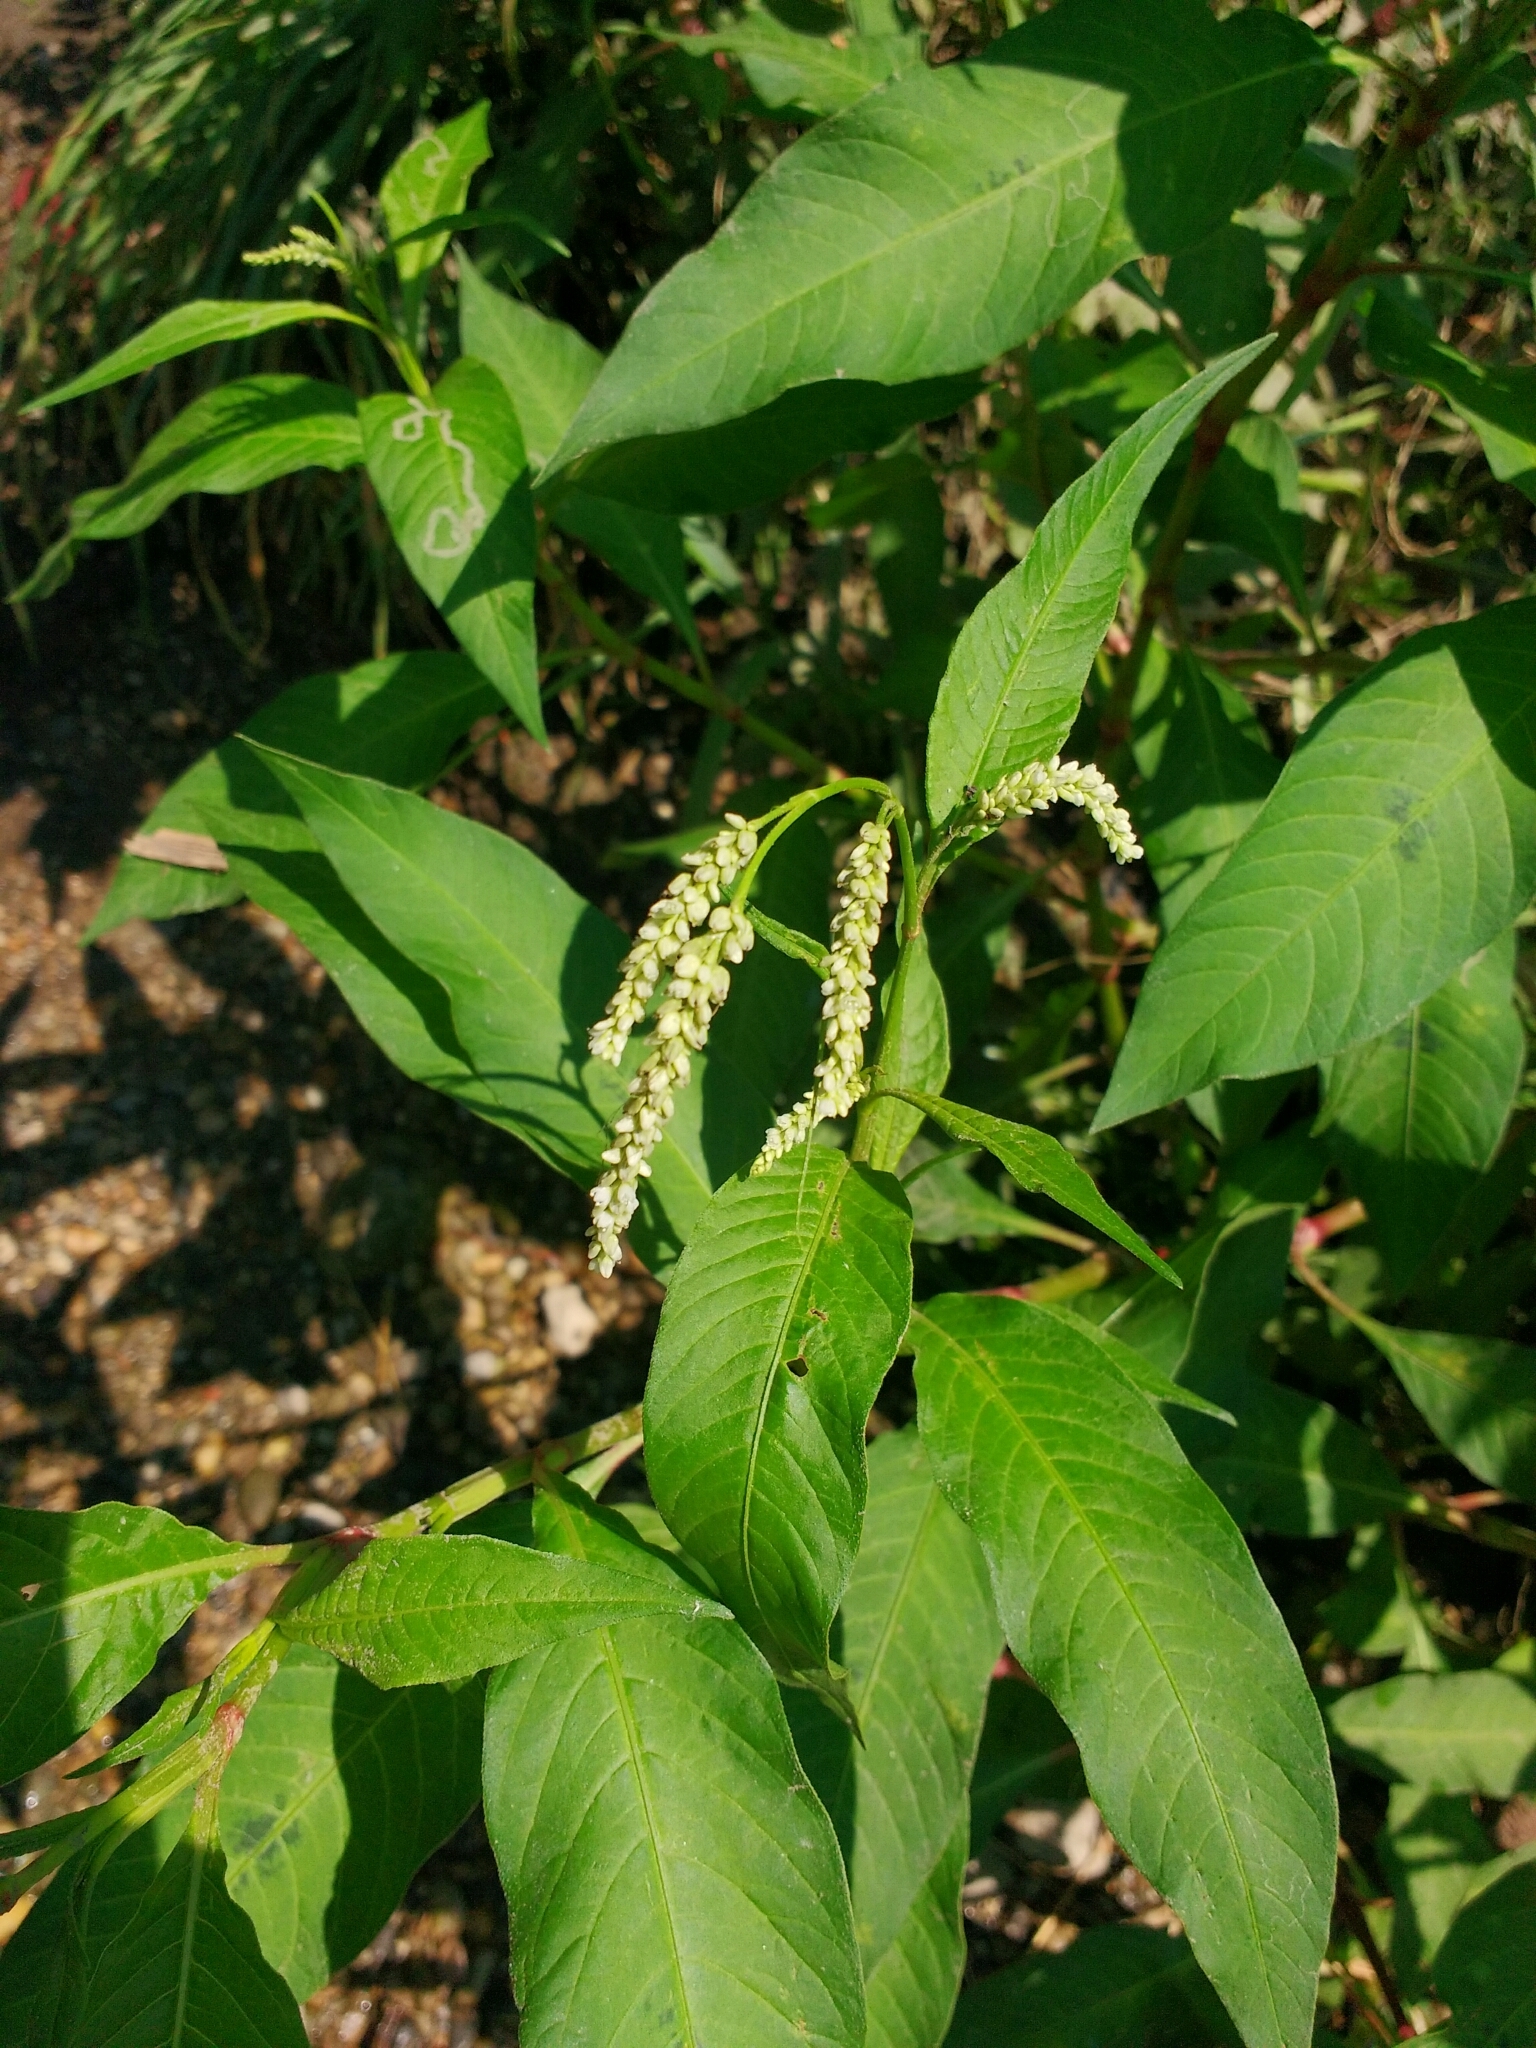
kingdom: Plantae
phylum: Tracheophyta
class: Magnoliopsida
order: Caryophyllales
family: Polygonaceae
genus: Persicaria
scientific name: Persicaria lapathifolia
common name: Curlytop knotweed
